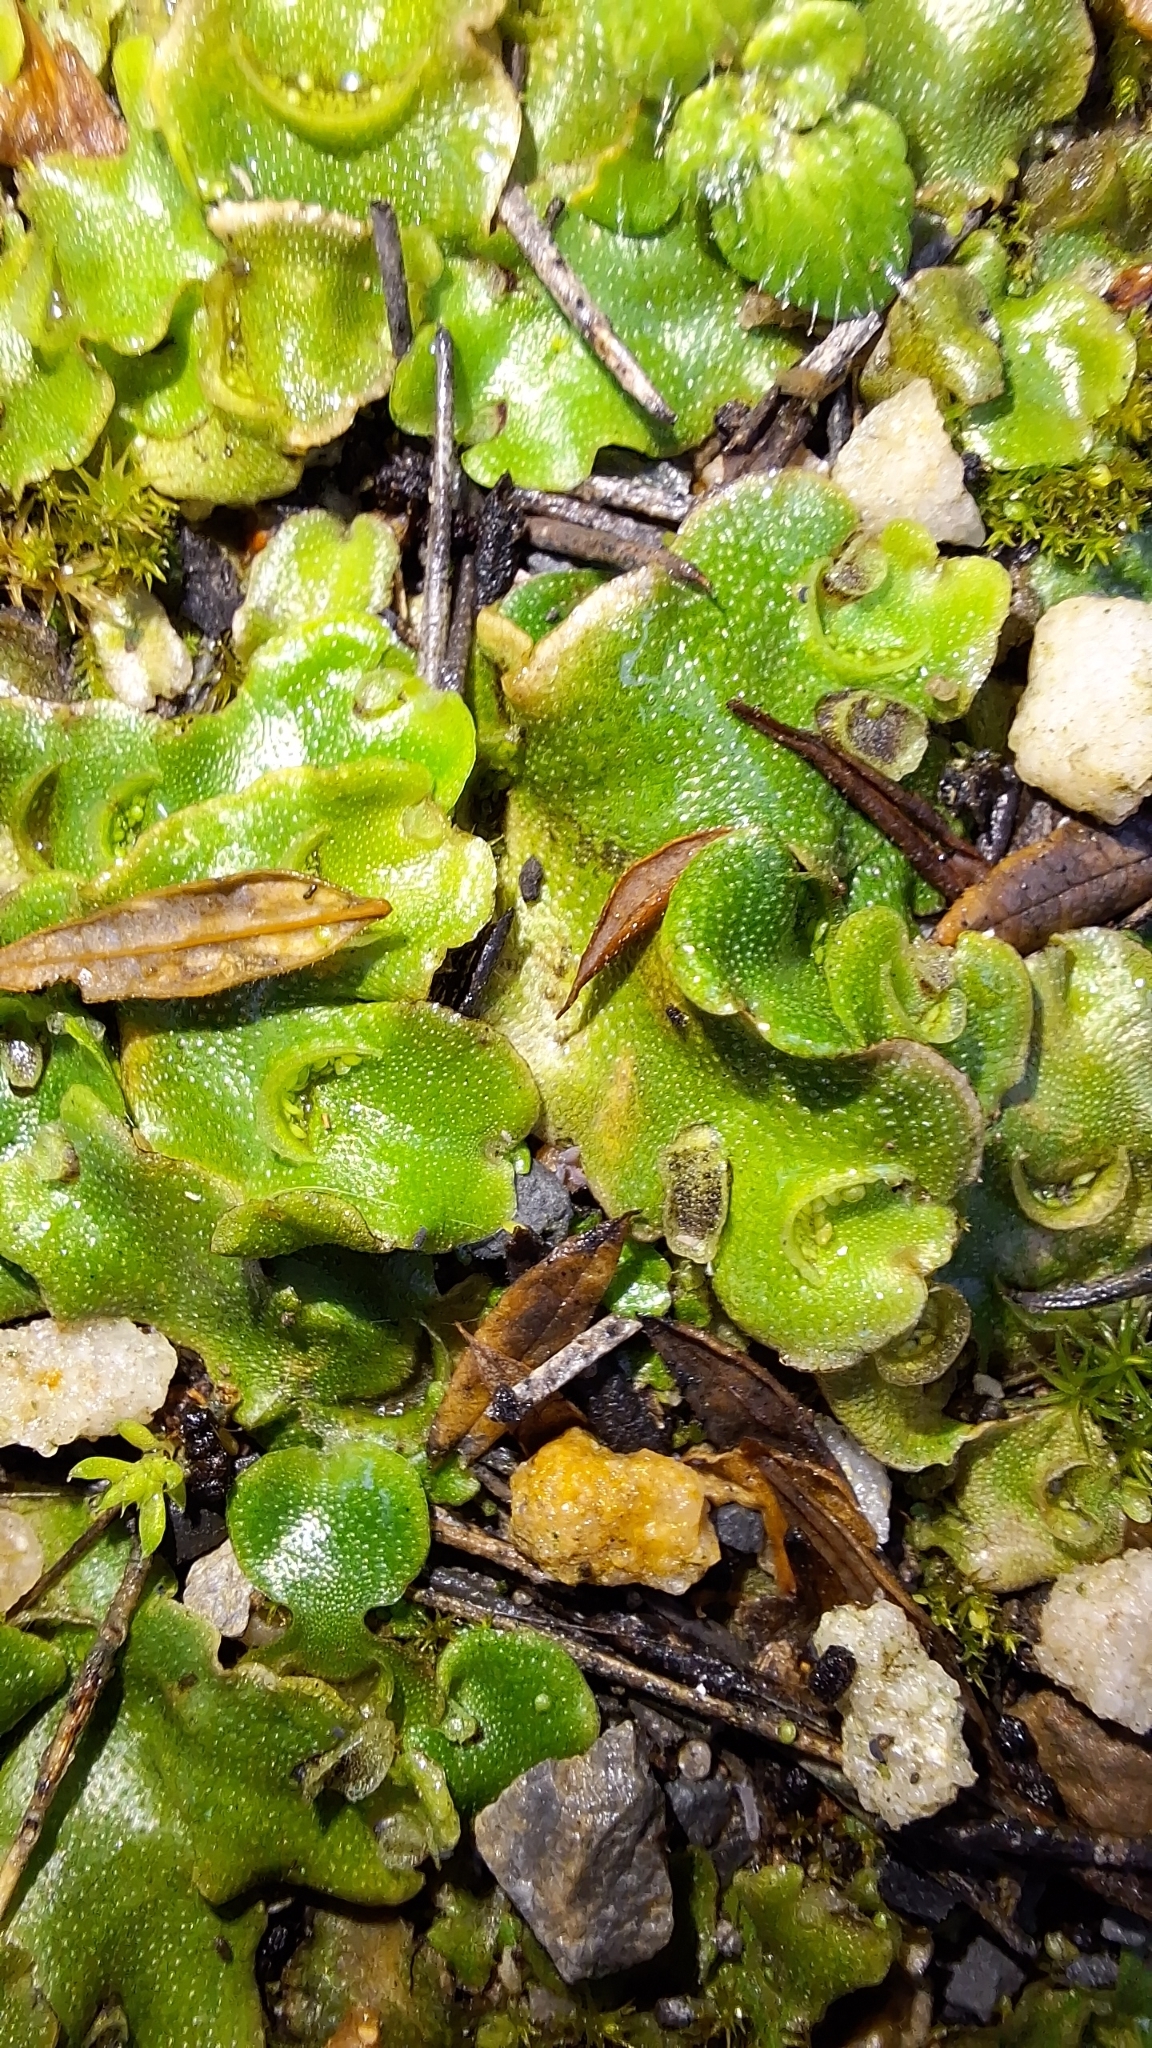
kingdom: Plantae
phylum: Marchantiophyta
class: Marchantiopsida
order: Lunulariales
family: Lunulariaceae
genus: Lunularia
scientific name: Lunularia cruciata
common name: Crescent-cup liverwort
